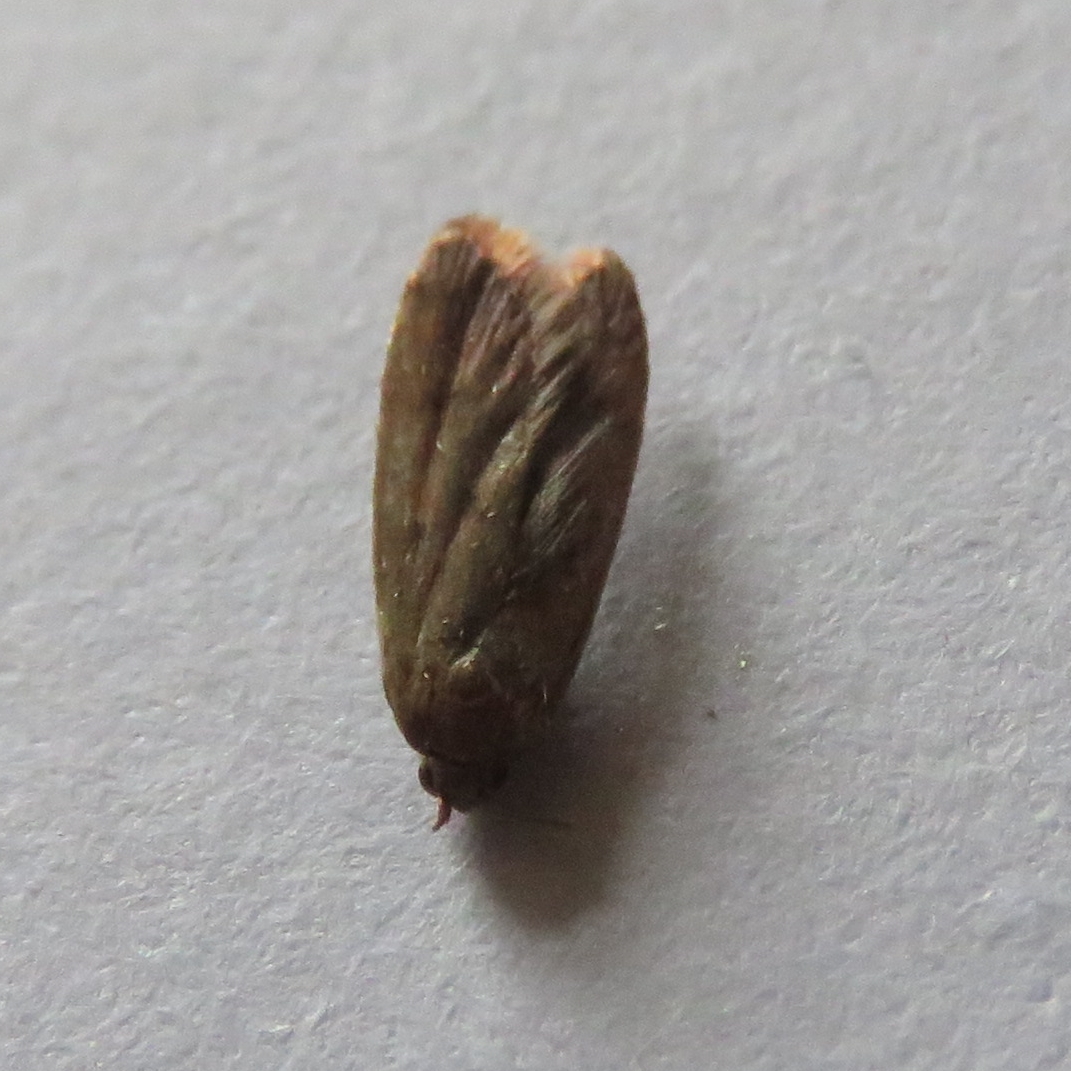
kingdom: Animalia
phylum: Arthropoda
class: Insecta
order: Lepidoptera
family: Oecophoridae
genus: Tachystola
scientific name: Tachystola acroxantha
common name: Ruddy streak
